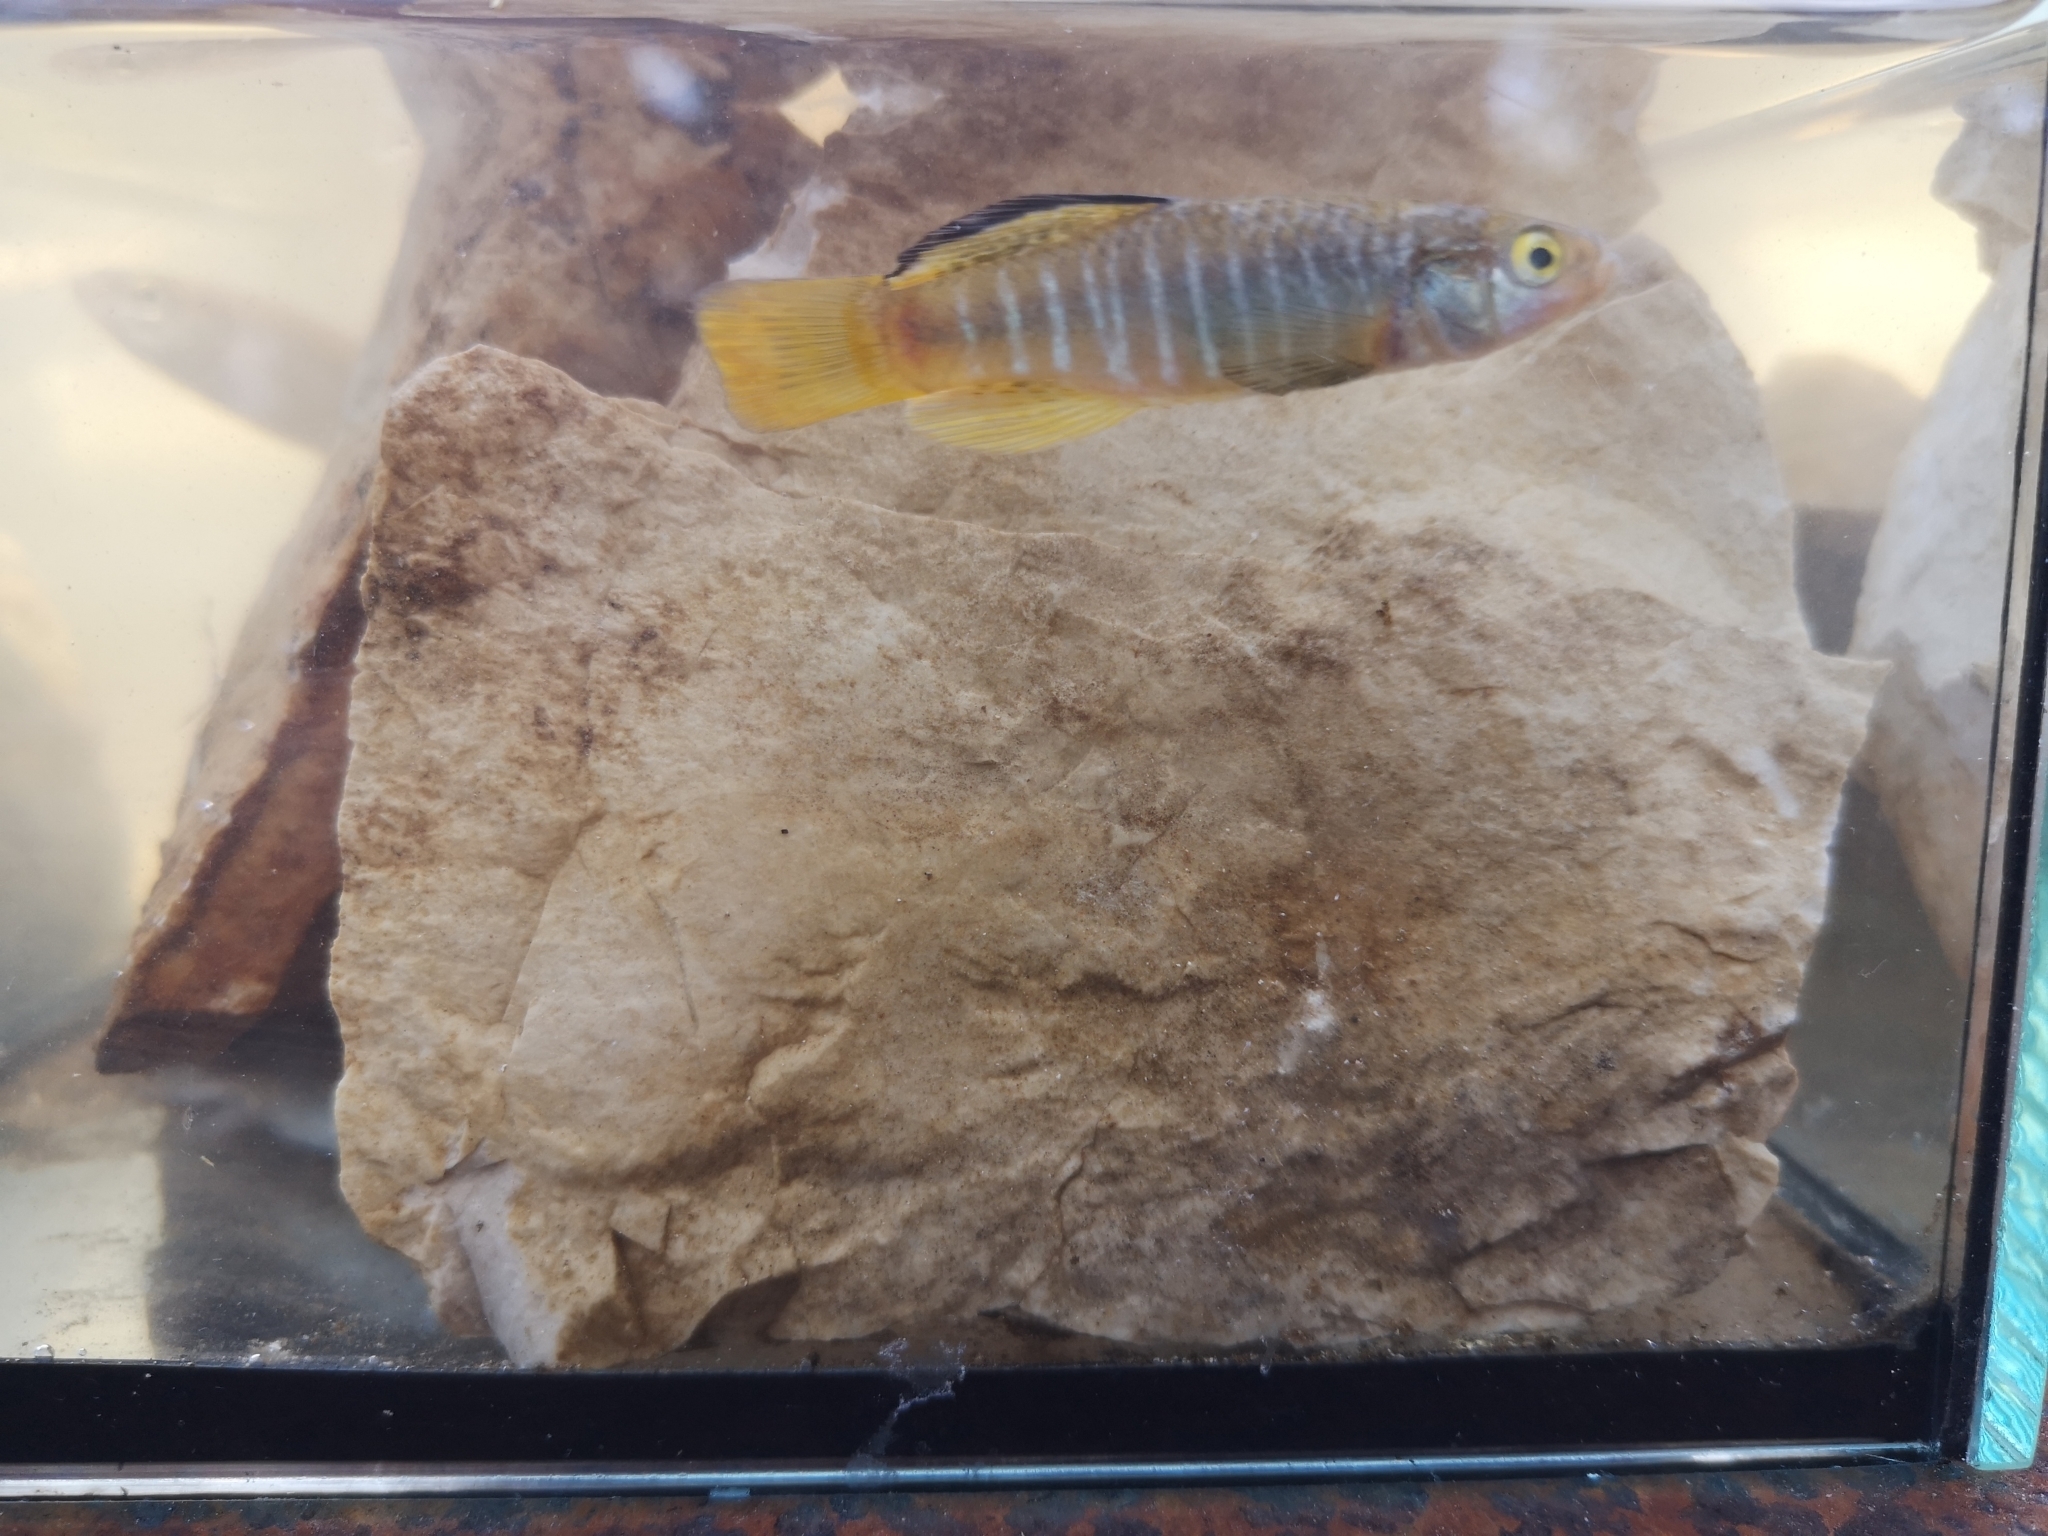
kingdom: Animalia
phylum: Chordata
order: Cyprinodontiformes
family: Cyprinodontidae
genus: Aphanius
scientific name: Aphanius fasciatus
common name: Mediterranean banded killifish
